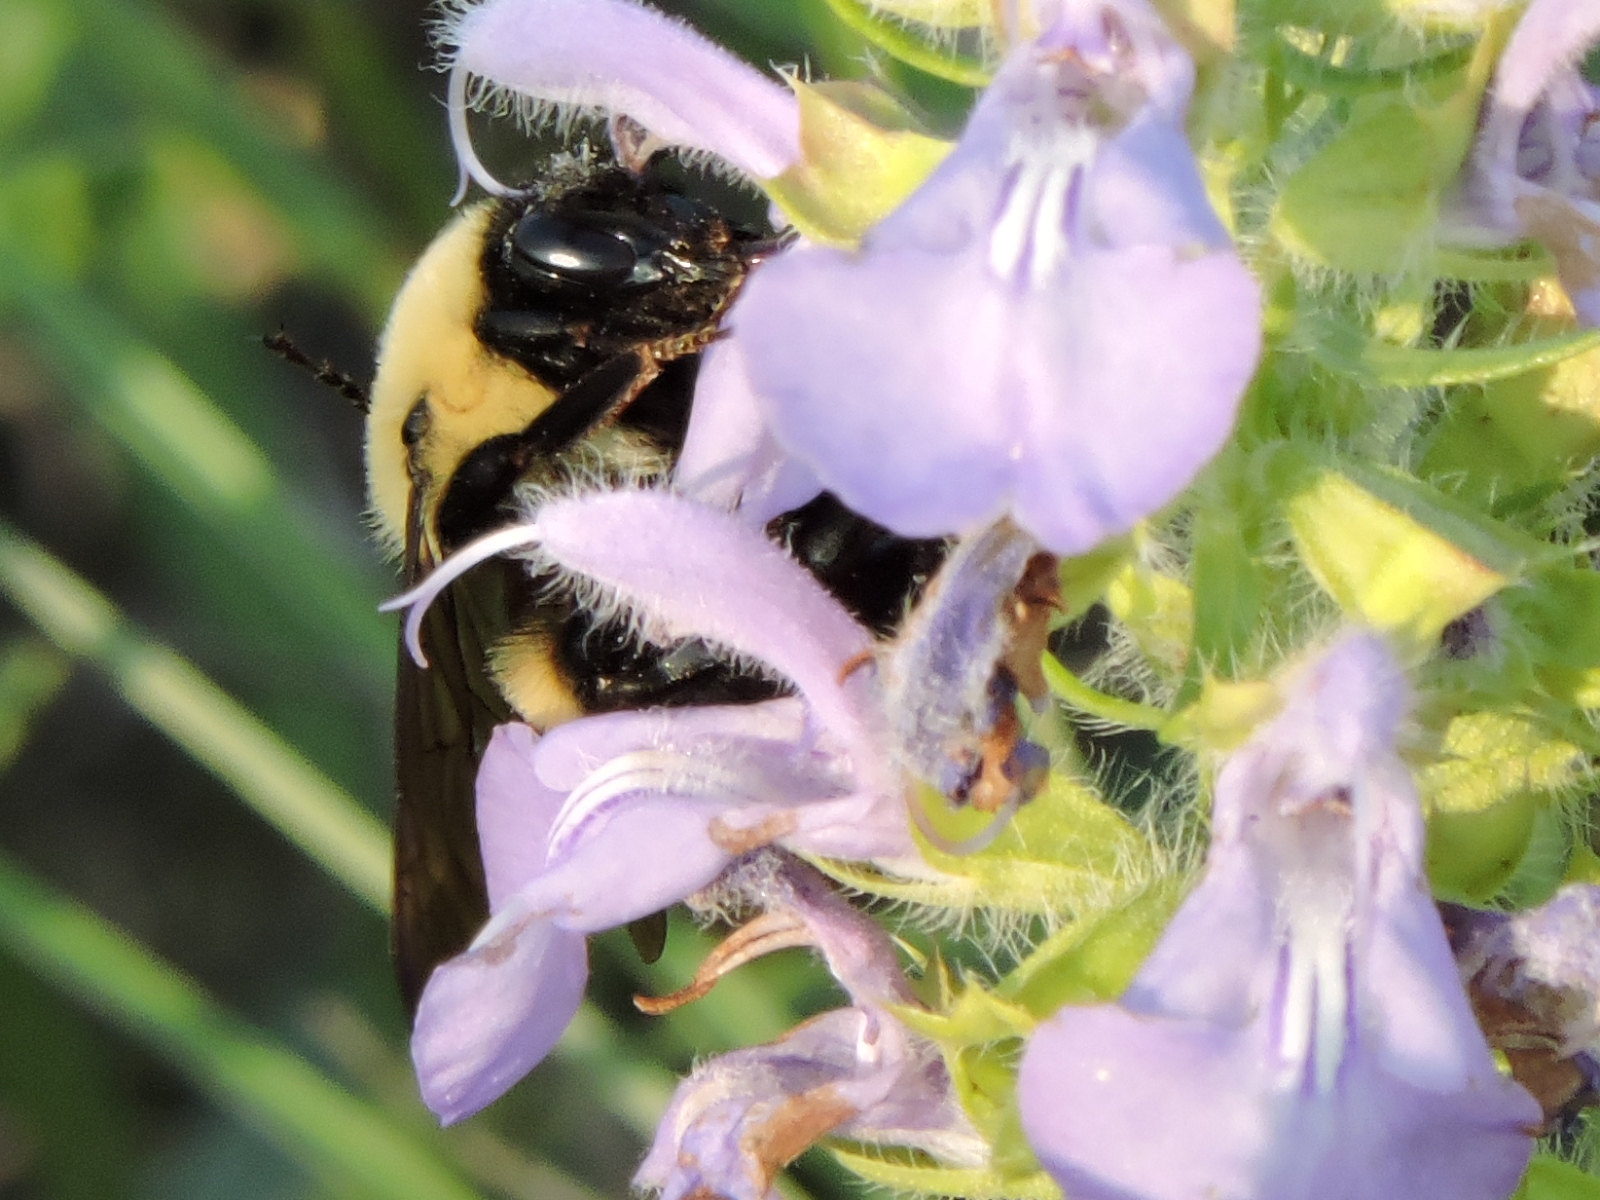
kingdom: Animalia
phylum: Arthropoda
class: Insecta
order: Hymenoptera
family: Apidae
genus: Bombus
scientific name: Bombus griseocollis
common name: Brown-belted bumble bee
